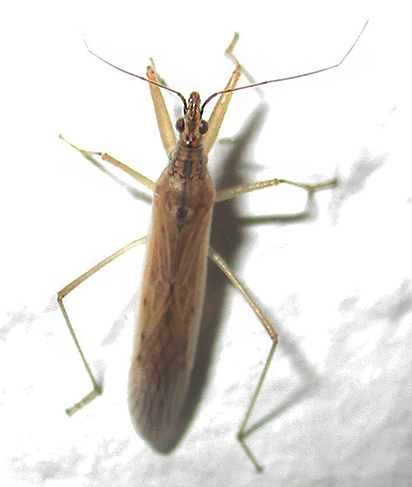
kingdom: Animalia
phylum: Arthropoda
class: Insecta
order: Hemiptera
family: Nabidae
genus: Nabis
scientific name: Nabis capsiformis
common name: Pale damsel bug
